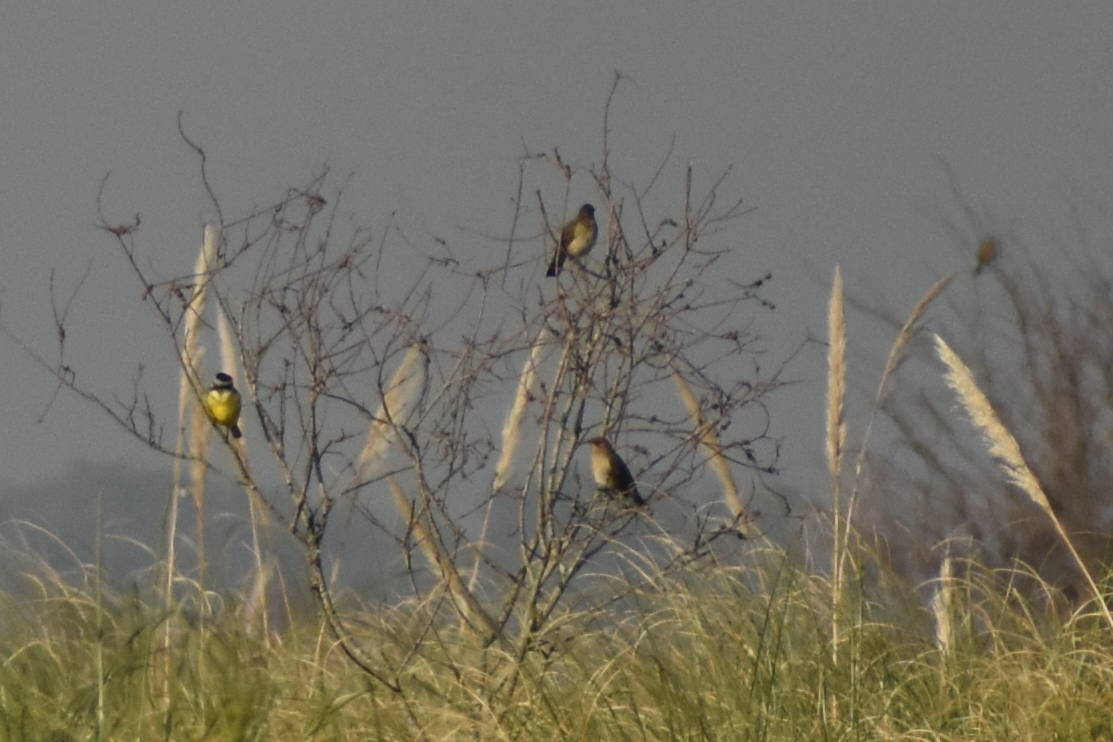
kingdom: Animalia
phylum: Chordata
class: Aves
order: Passeriformes
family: Turdidae
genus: Turdus
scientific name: Turdus amaurochalinus
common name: Creamy-bellied thrush
